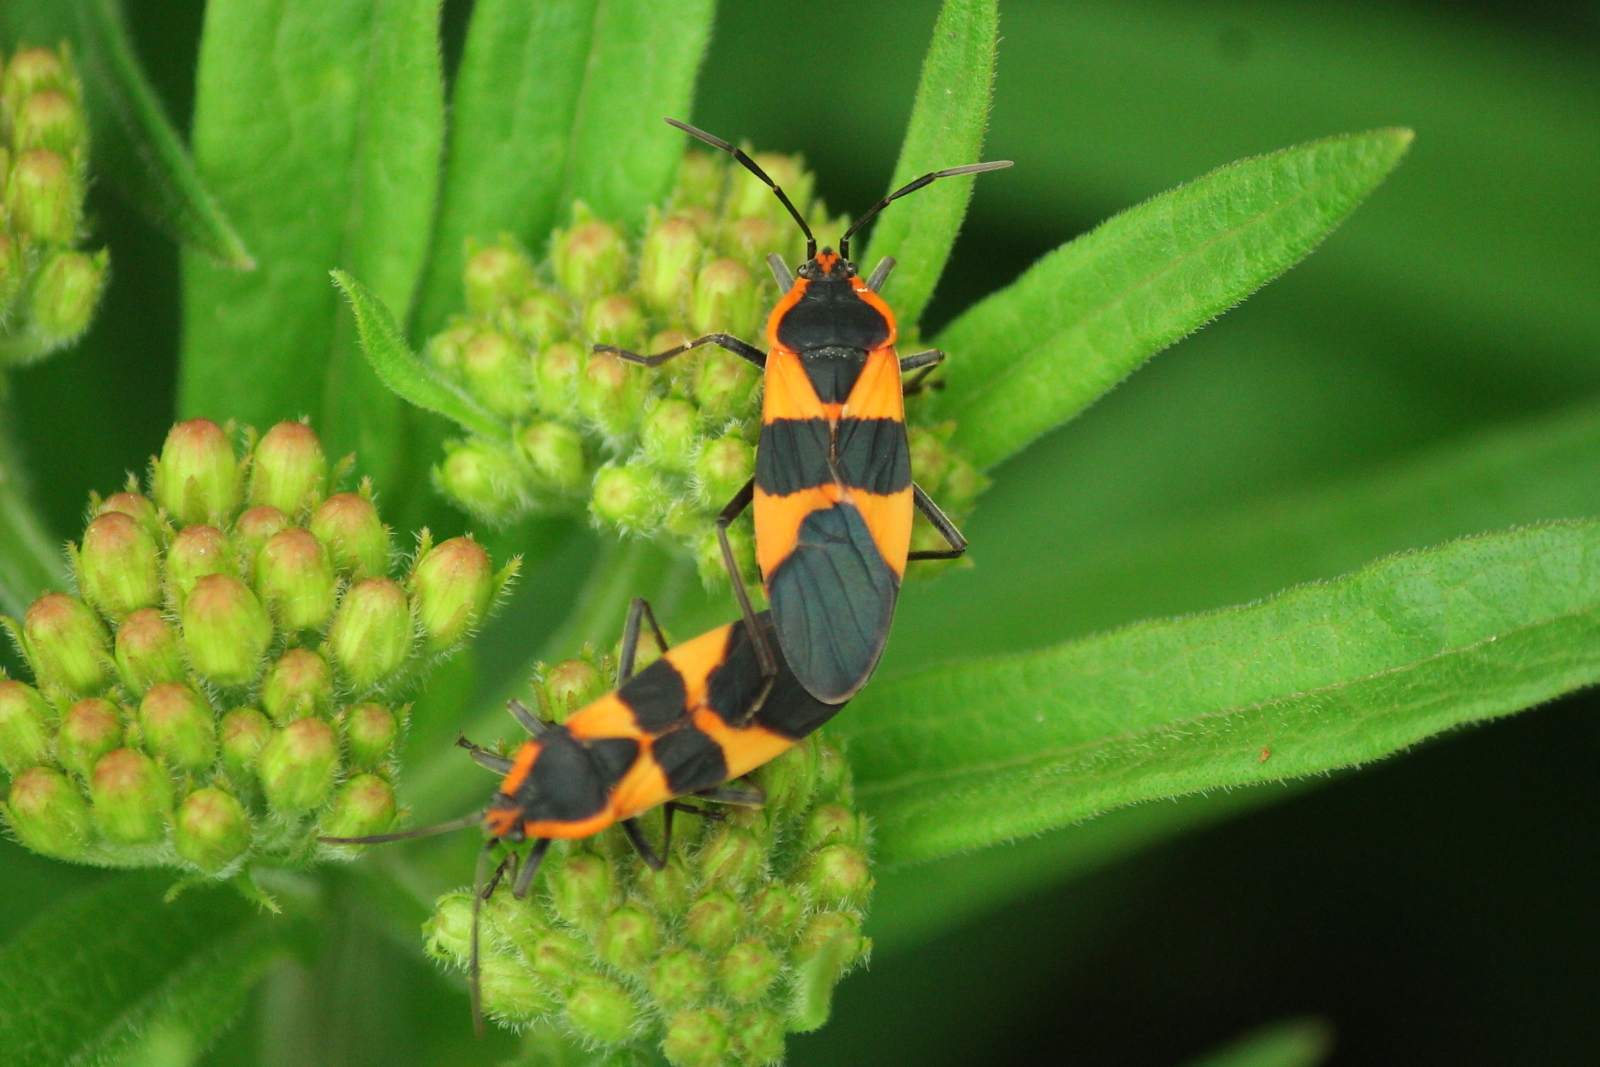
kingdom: Animalia
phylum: Arthropoda
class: Insecta
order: Hemiptera
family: Lygaeidae
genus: Oncopeltus
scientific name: Oncopeltus fasciatus
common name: Large milkweed bug
